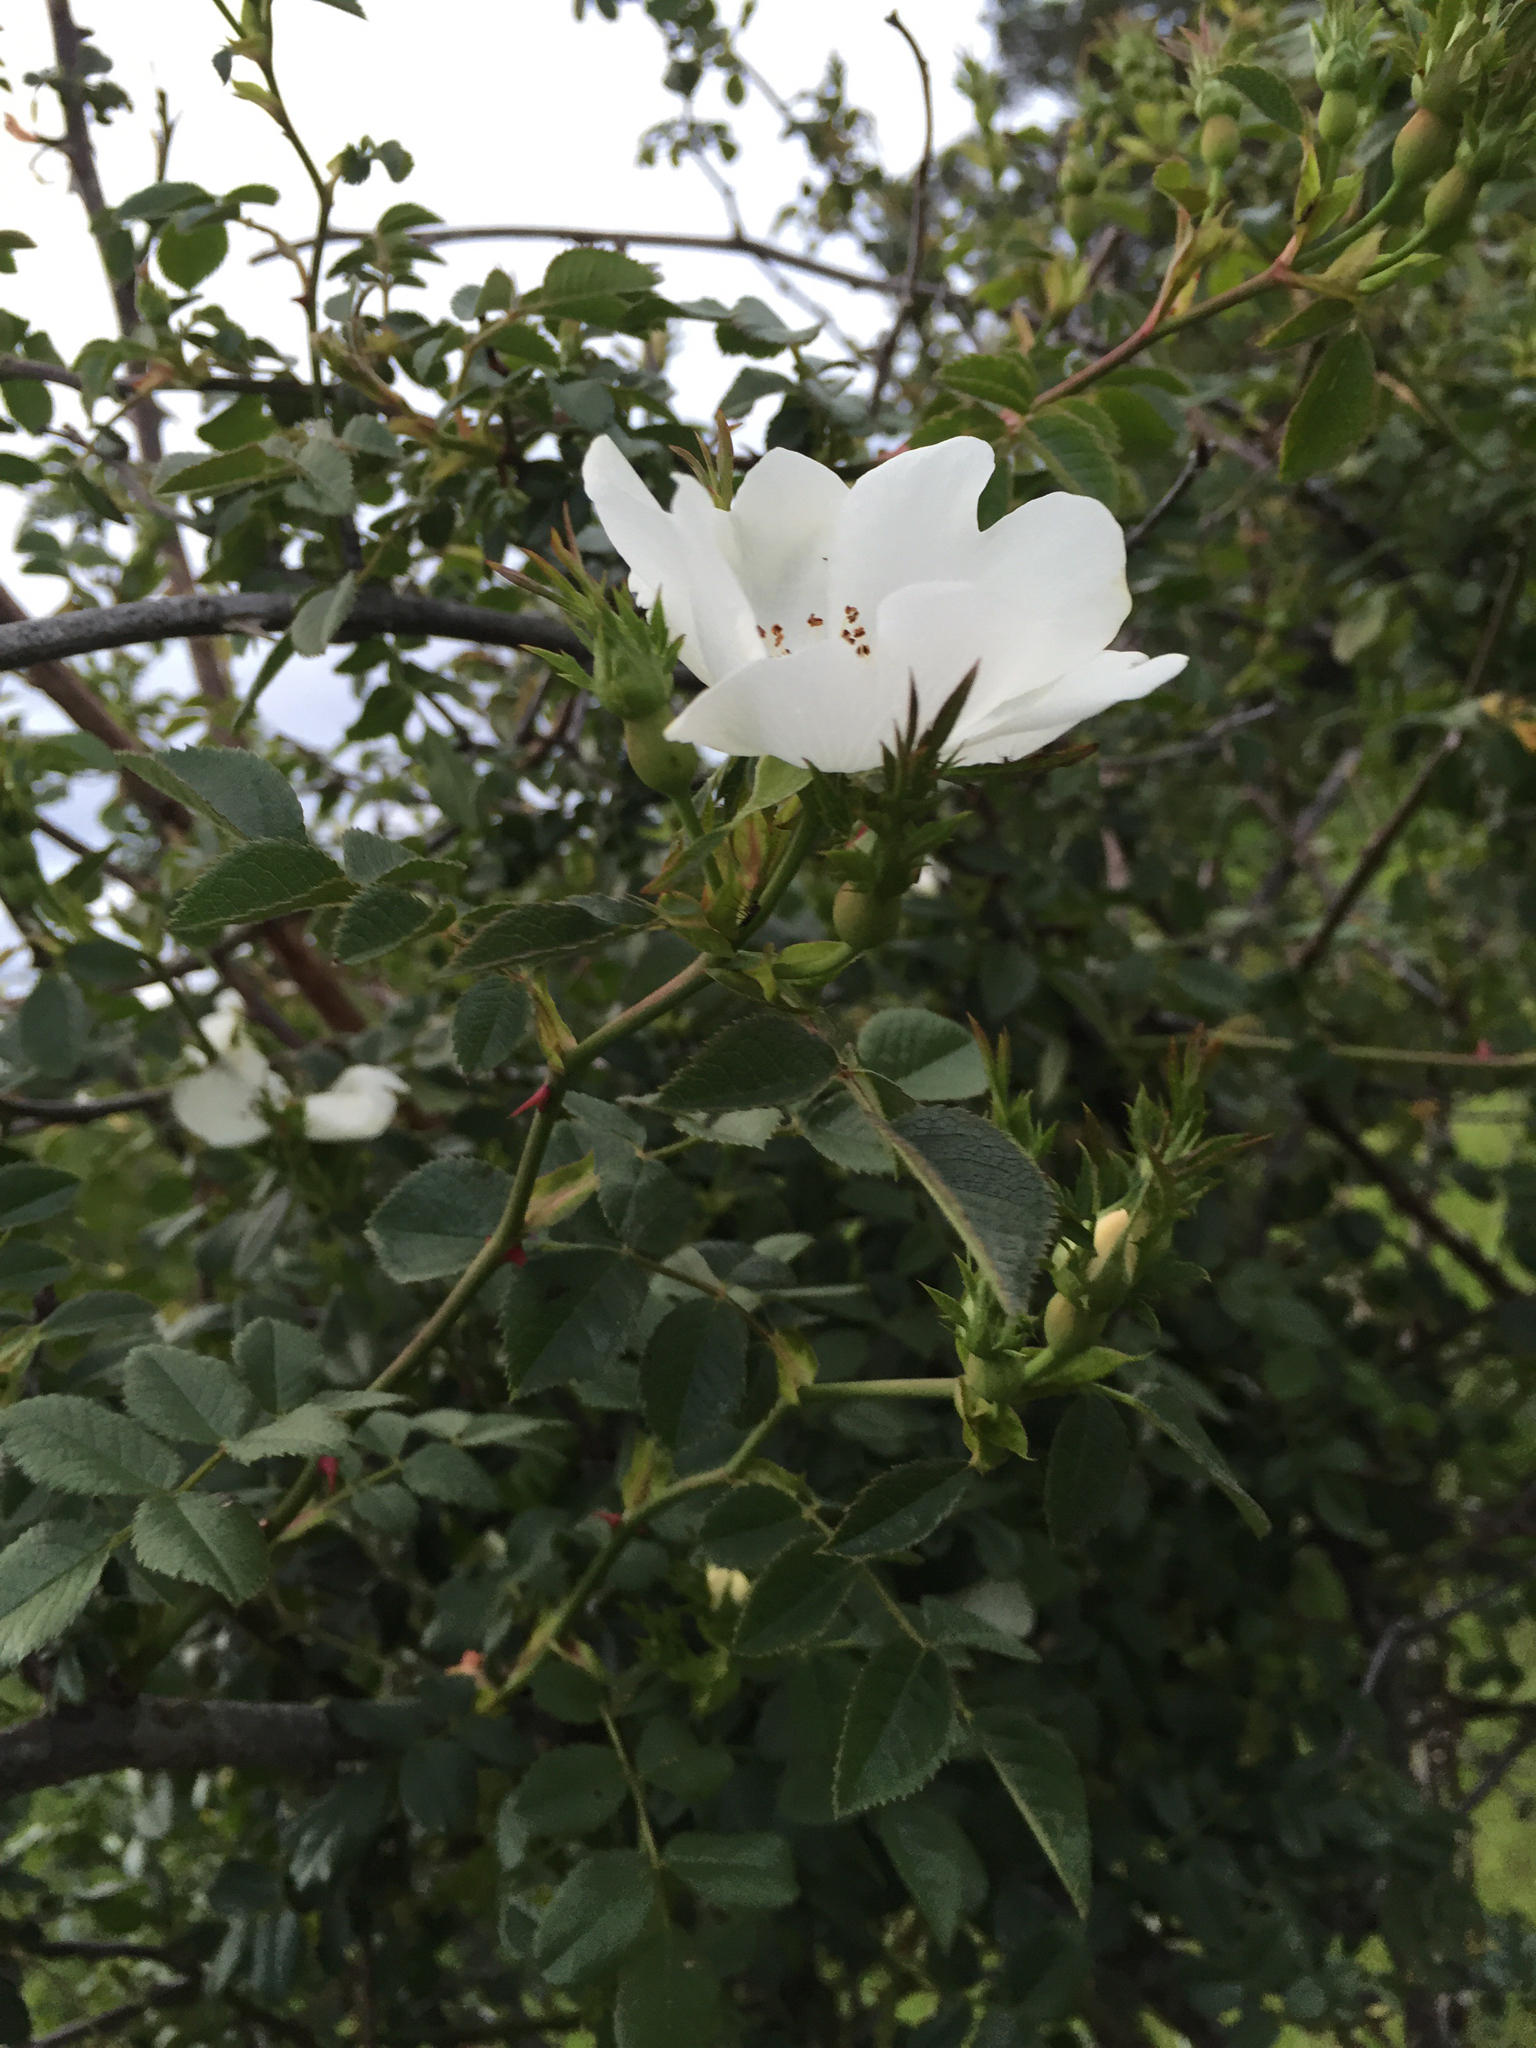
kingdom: Plantae
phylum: Tracheophyta
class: Magnoliopsida
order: Rosales
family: Rosaceae
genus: Rosa
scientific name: Rosa
